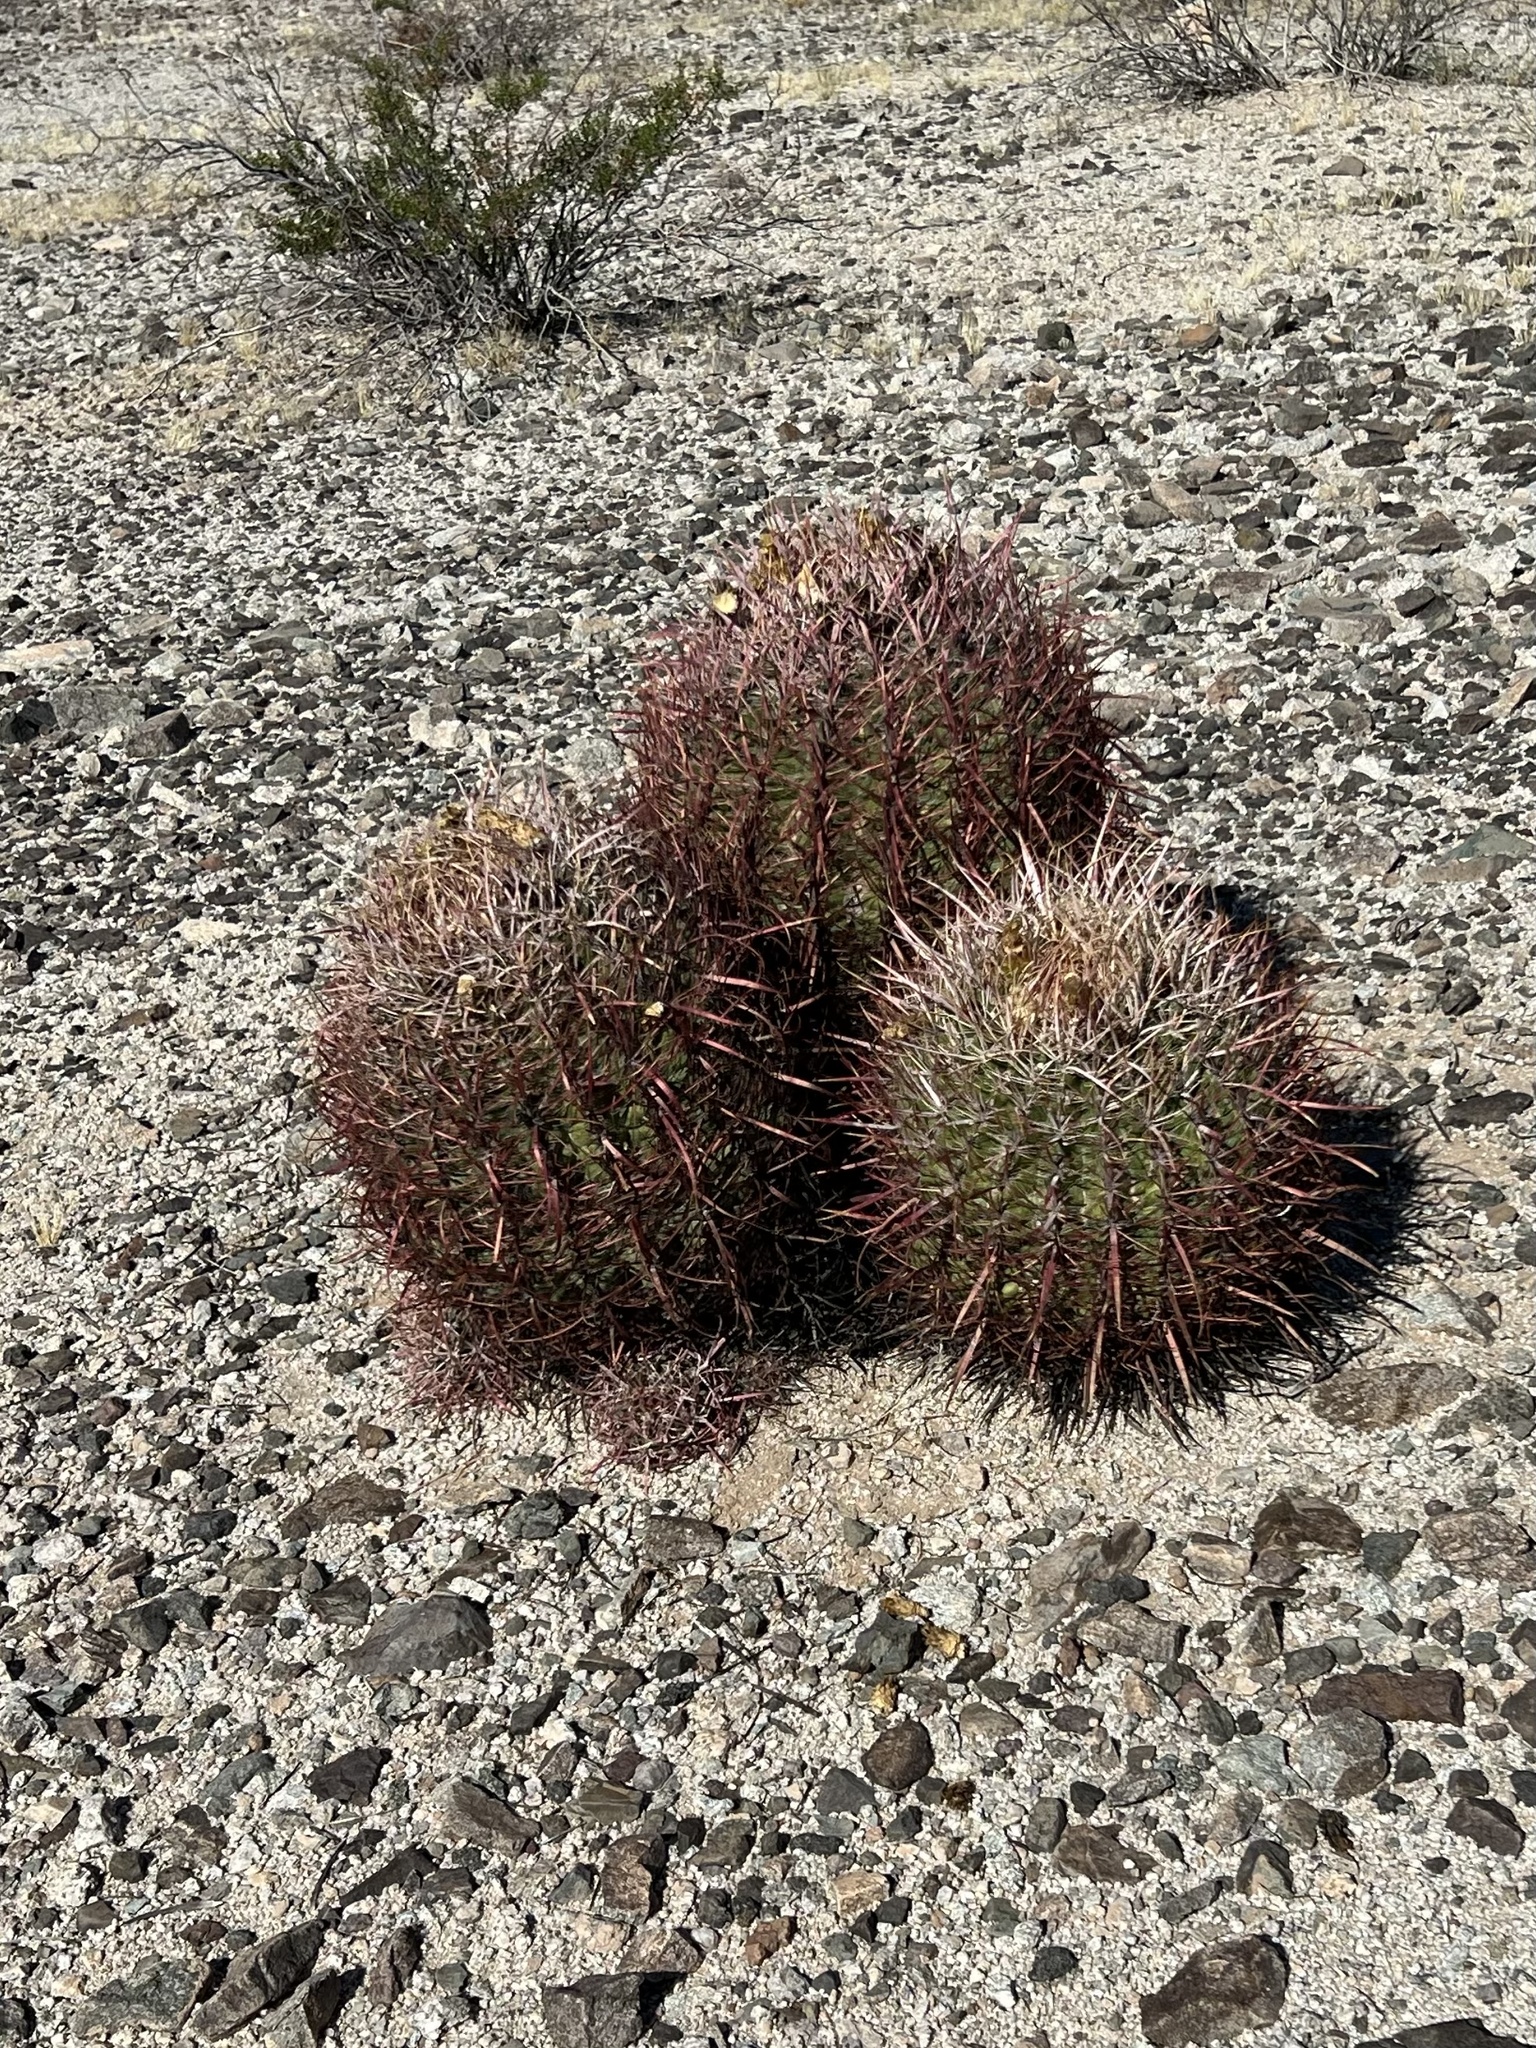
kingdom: Plantae
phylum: Tracheophyta
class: Magnoliopsida
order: Caryophyllales
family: Cactaceae
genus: Ferocactus
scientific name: Ferocactus cylindraceus
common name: California barrel cactus
